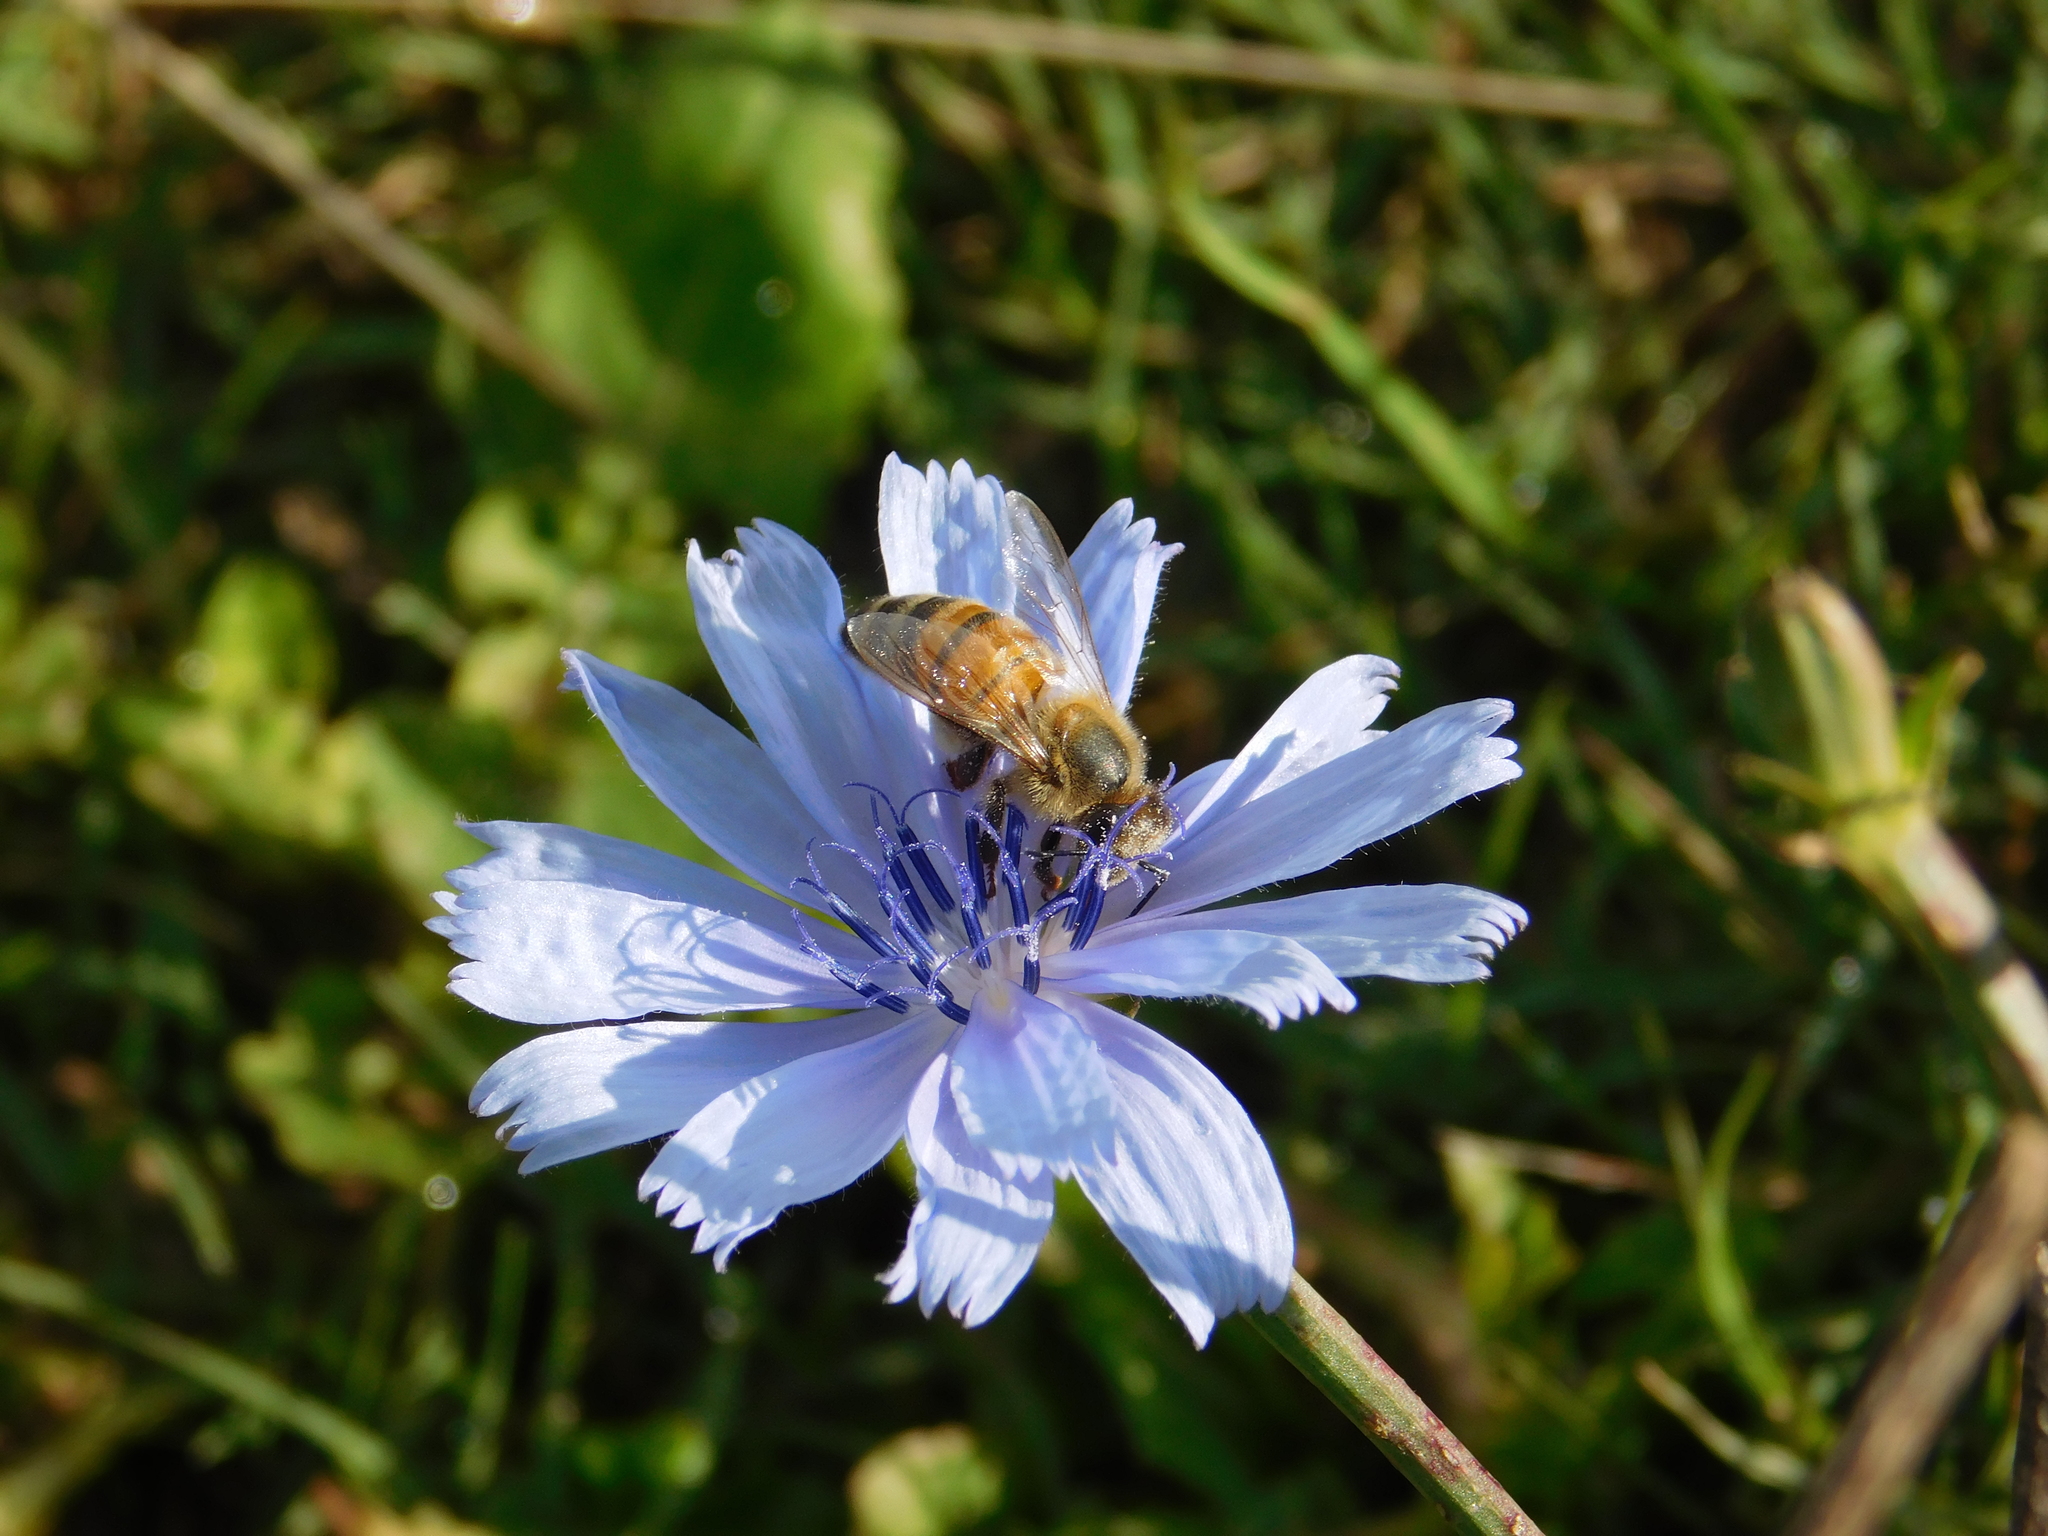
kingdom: Animalia
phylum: Arthropoda
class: Insecta
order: Hymenoptera
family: Apidae
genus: Apis
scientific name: Apis mellifera
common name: Honey bee
